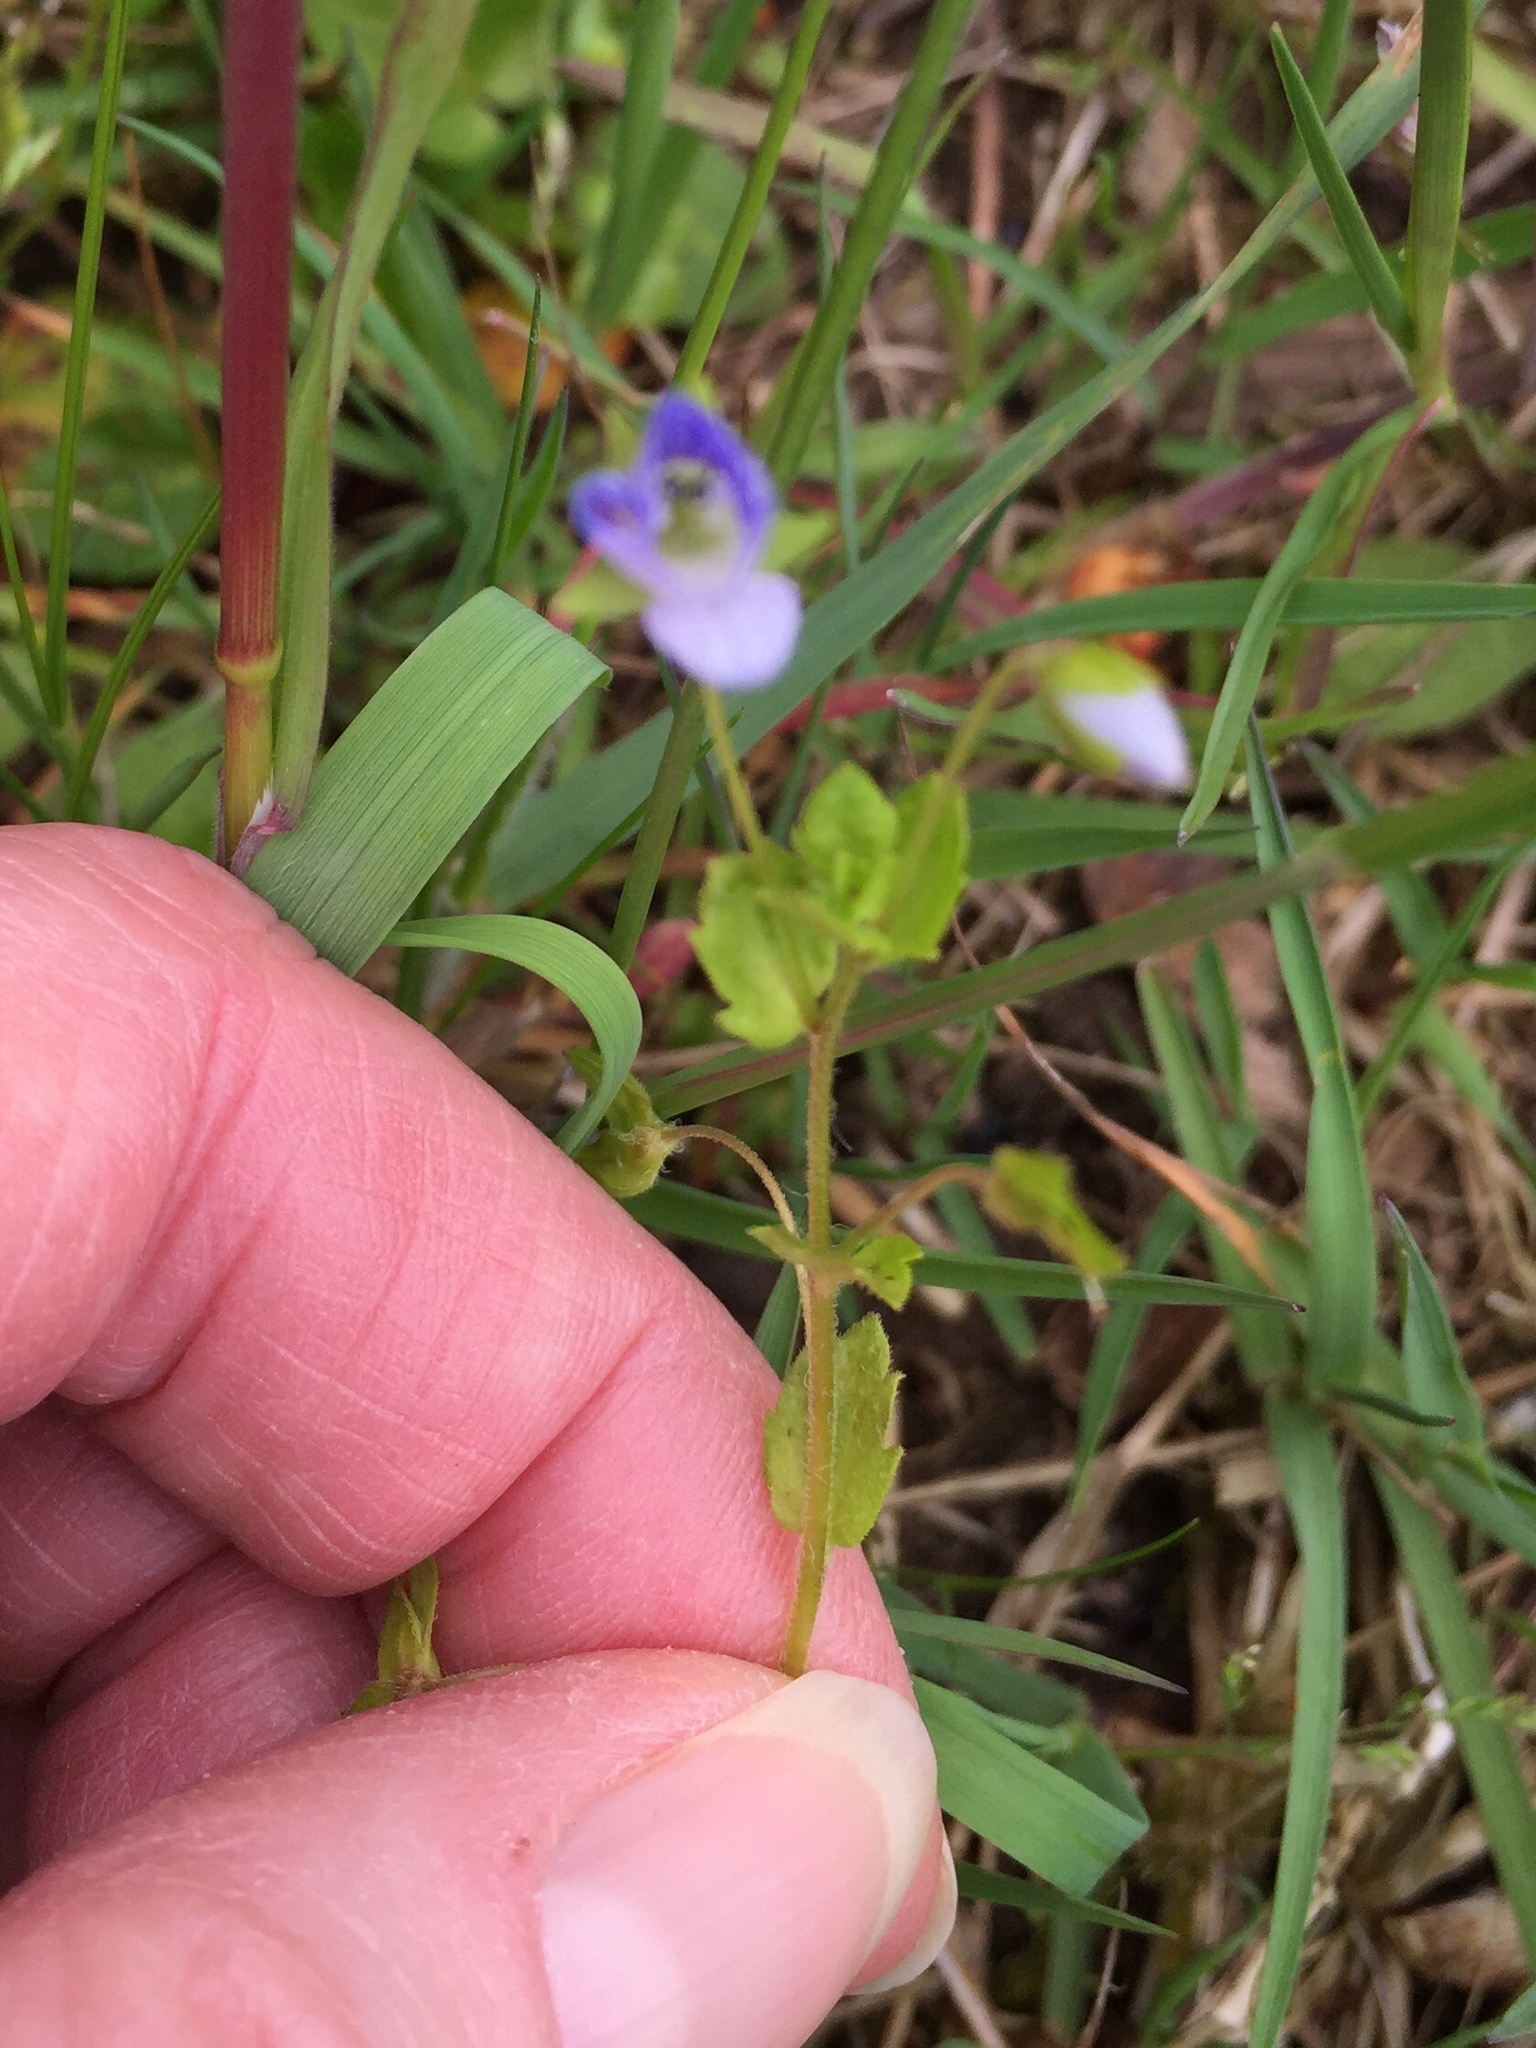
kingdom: Plantae
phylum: Tracheophyta
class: Magnoliopsida
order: Lamiales
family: Plantaginaceae
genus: Veronica
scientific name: Veronica persica
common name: Common field-speedwell
